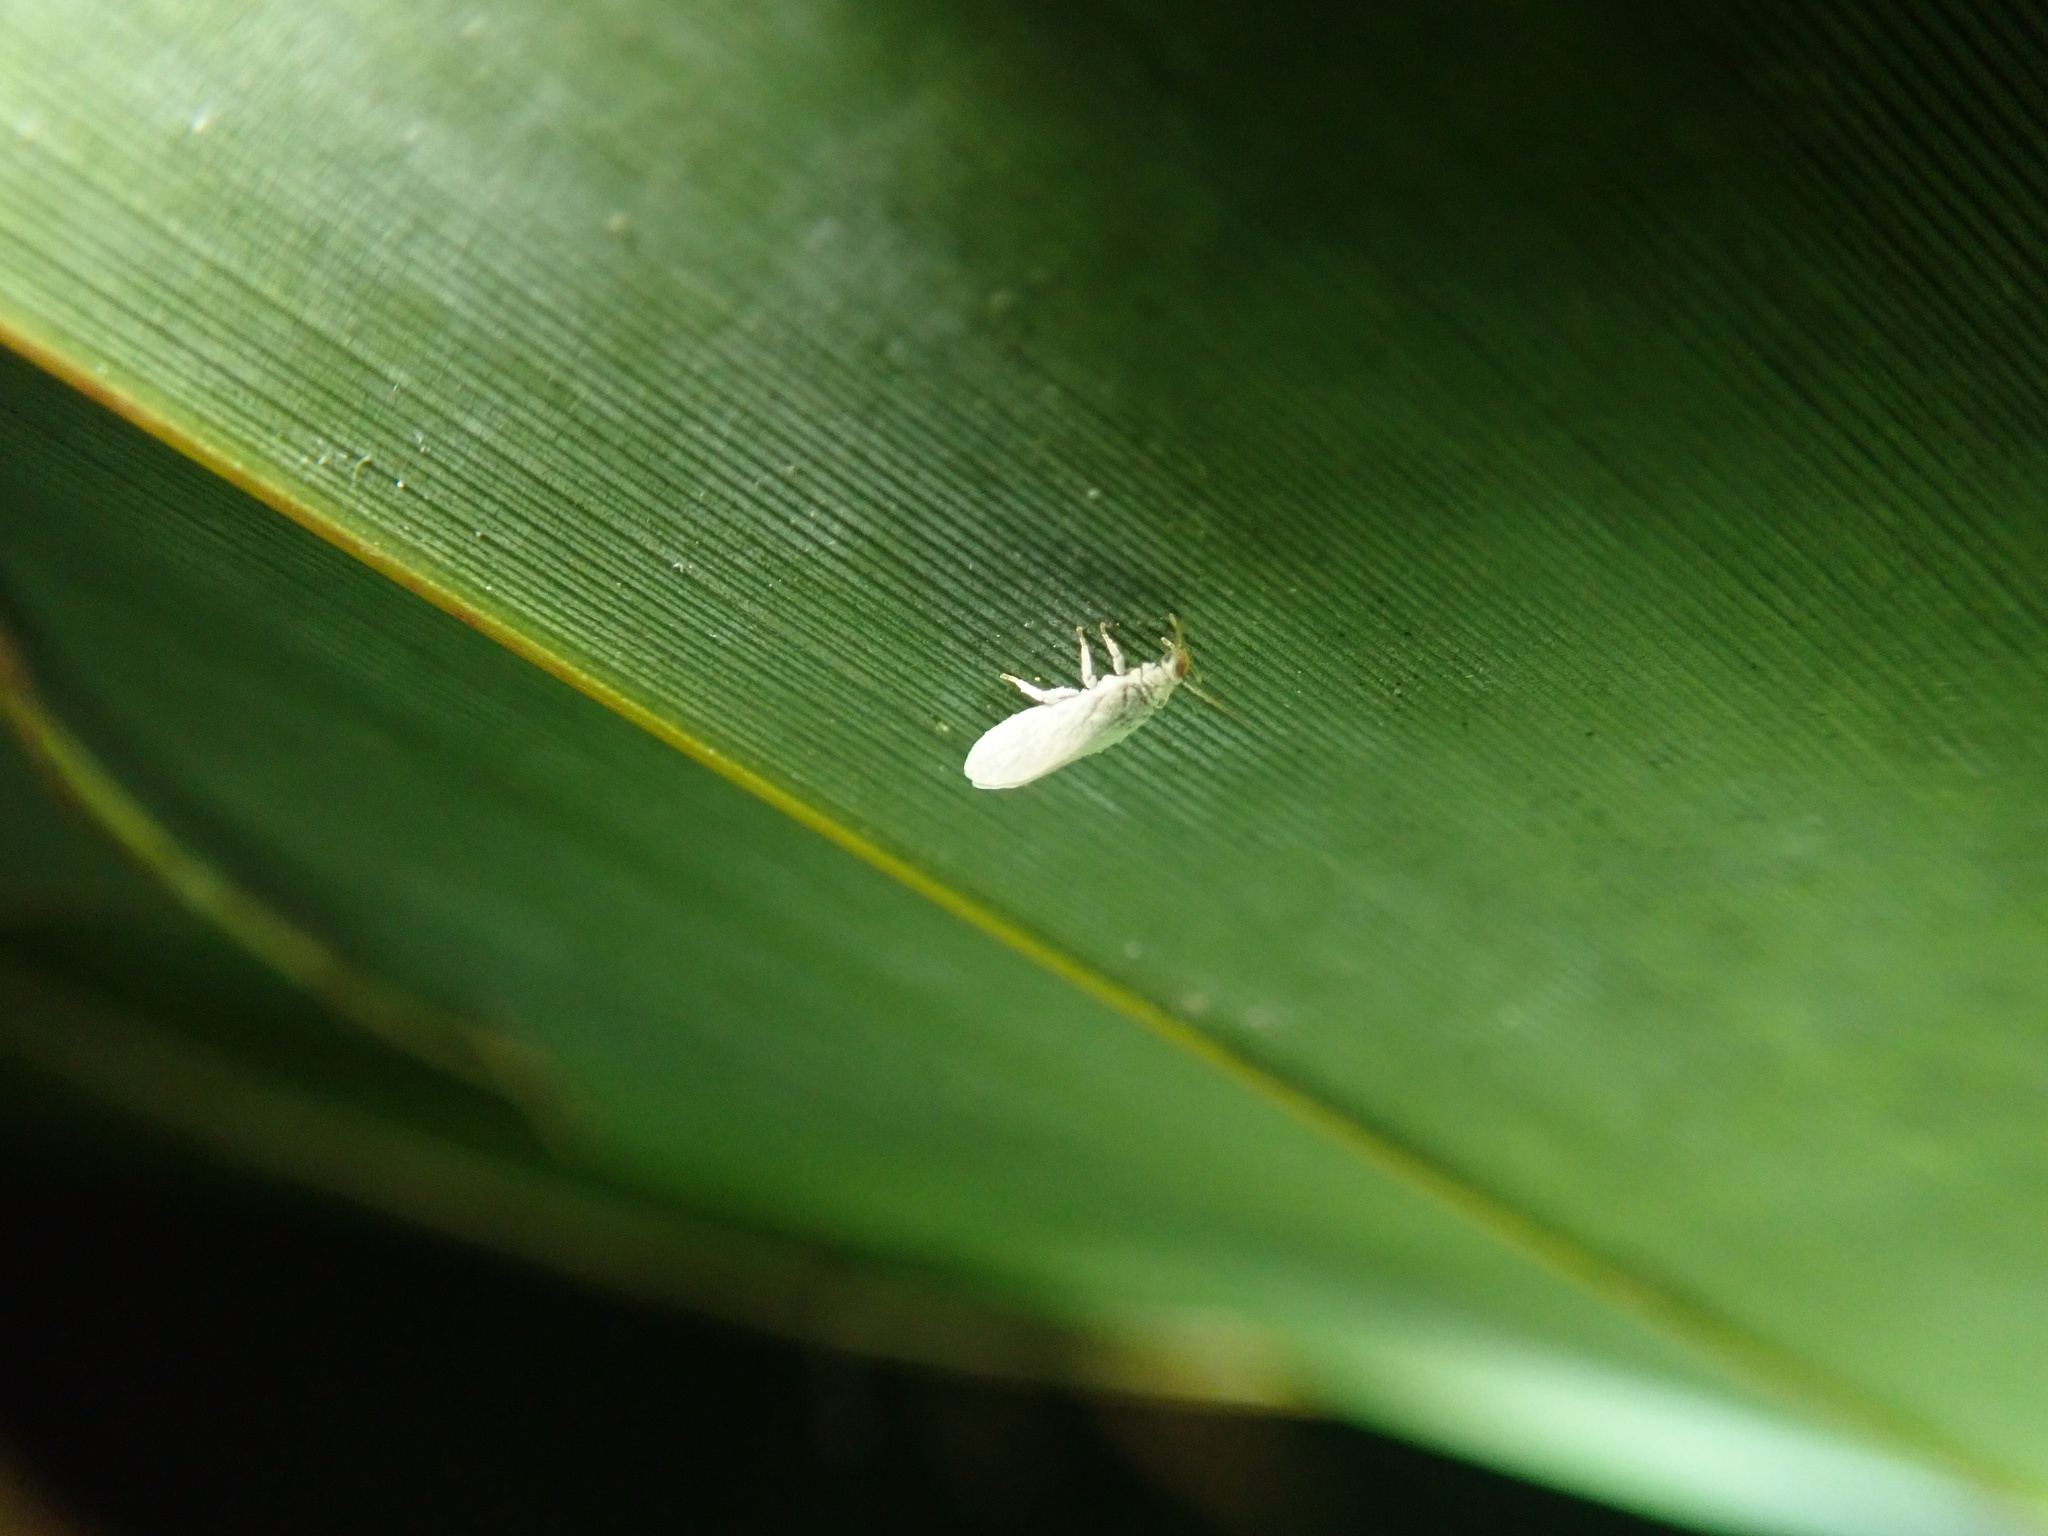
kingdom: Animalia
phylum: Arthropoda
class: Insecta
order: Neuroptera
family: Coniopterygidae
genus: Cryptoscenea
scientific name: Cryptoscenea australiensis
